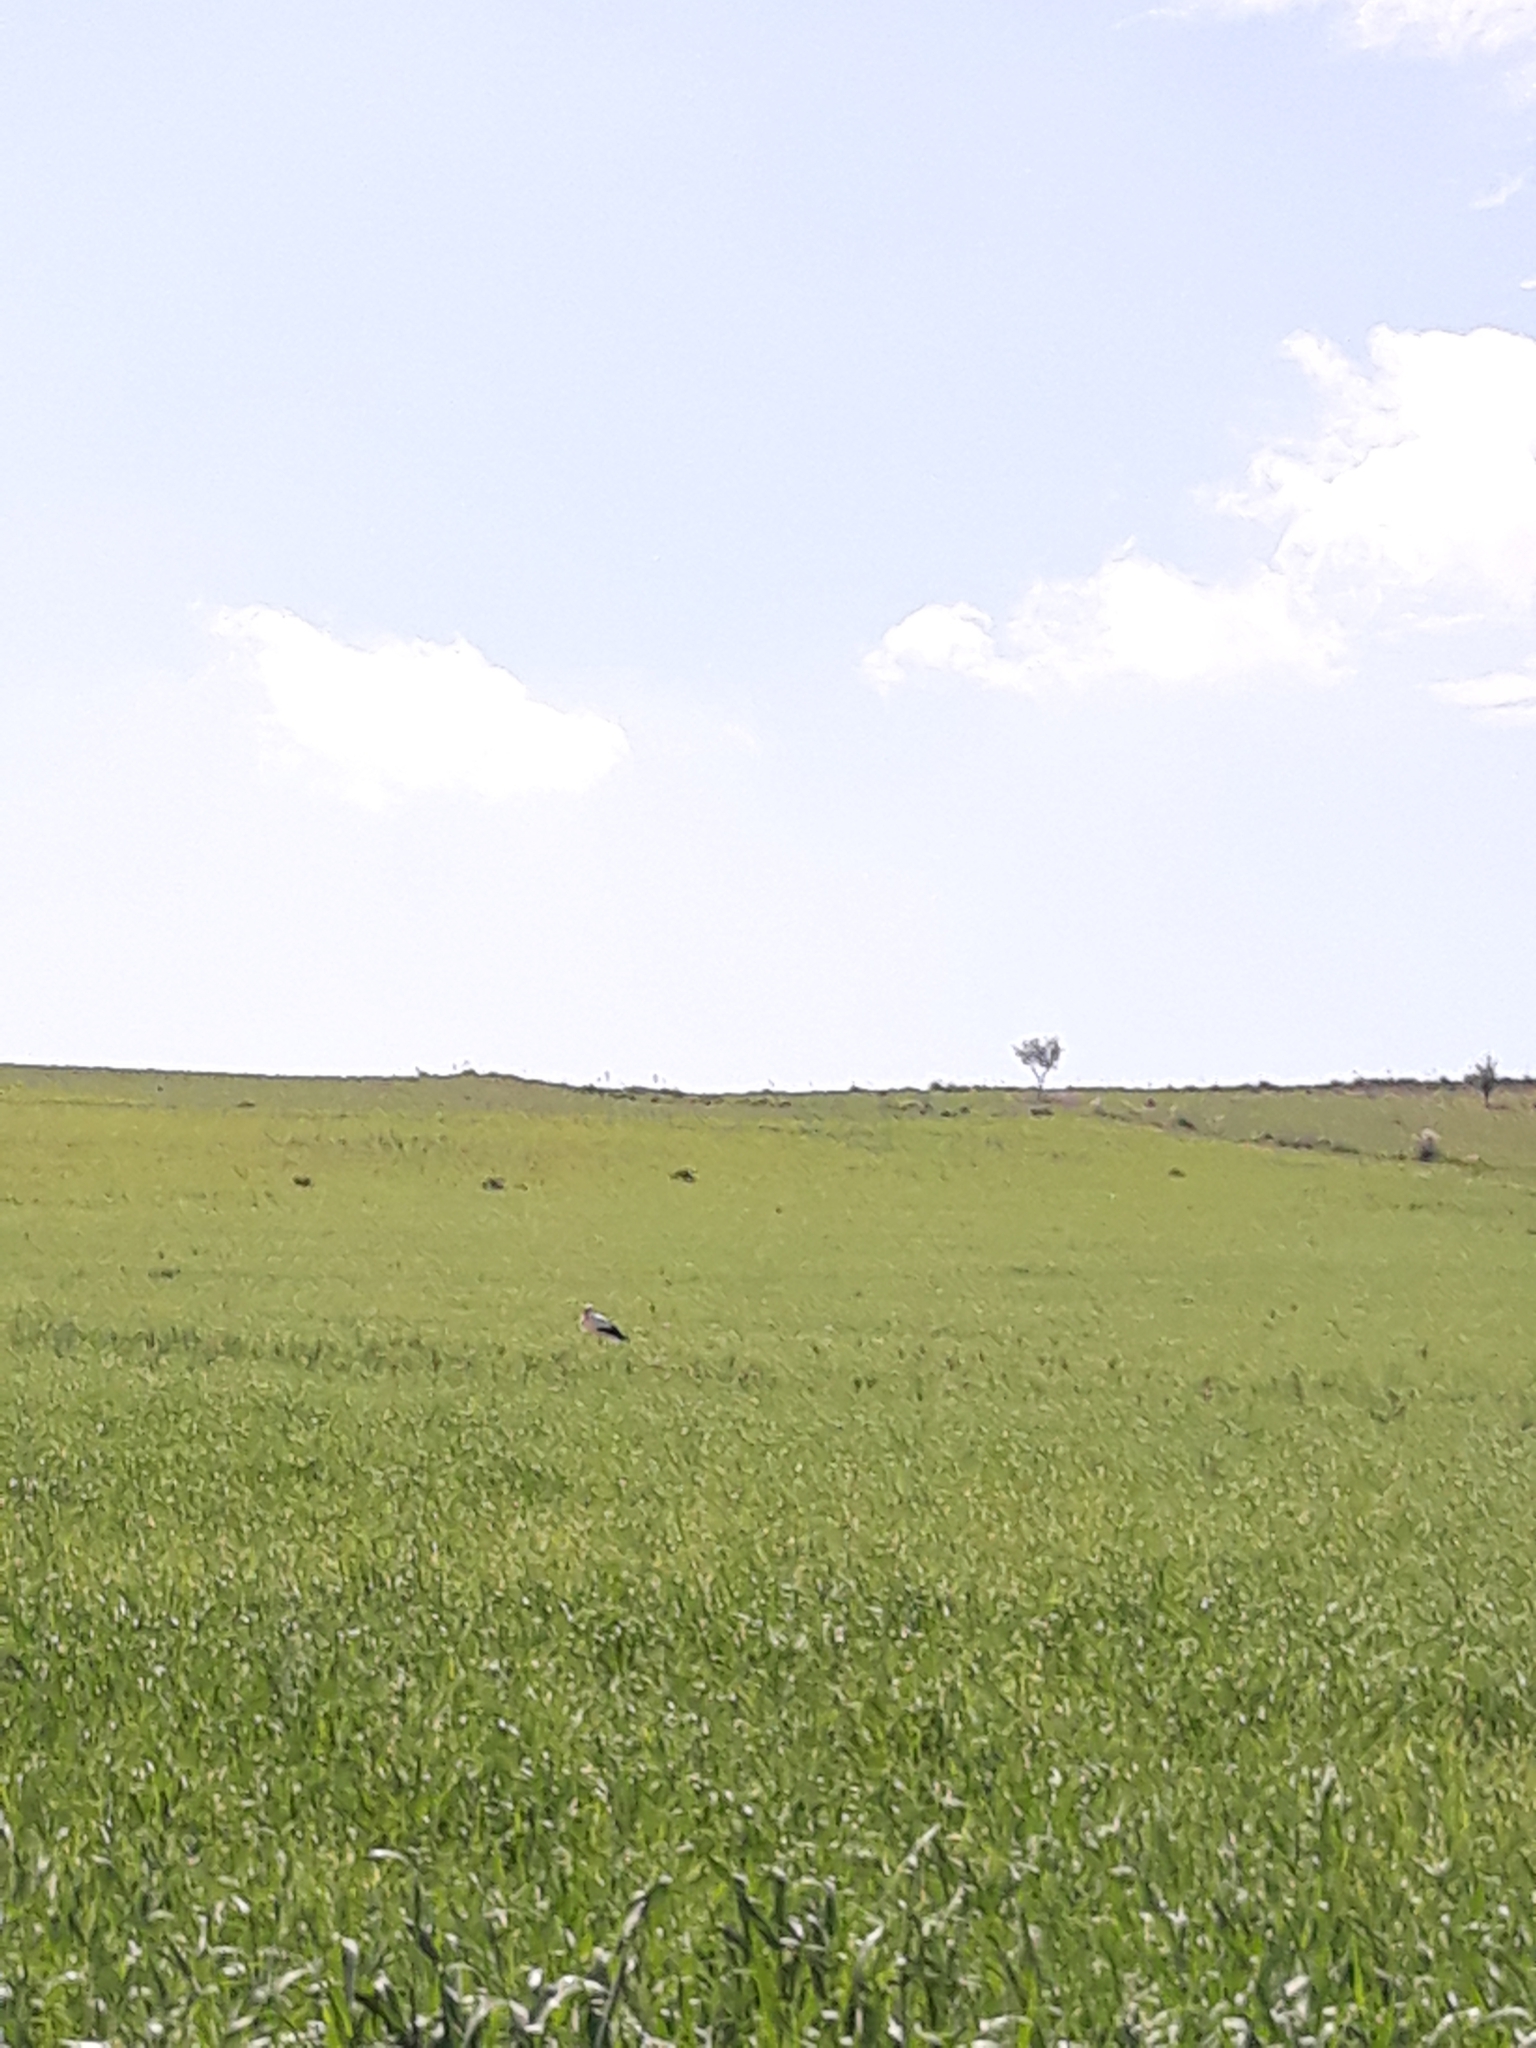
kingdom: Animalia
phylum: Chordata
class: Aves
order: Ciconiiformes
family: Ciconiidae
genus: Ciconia
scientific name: Ciconia ciconia
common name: White stork
